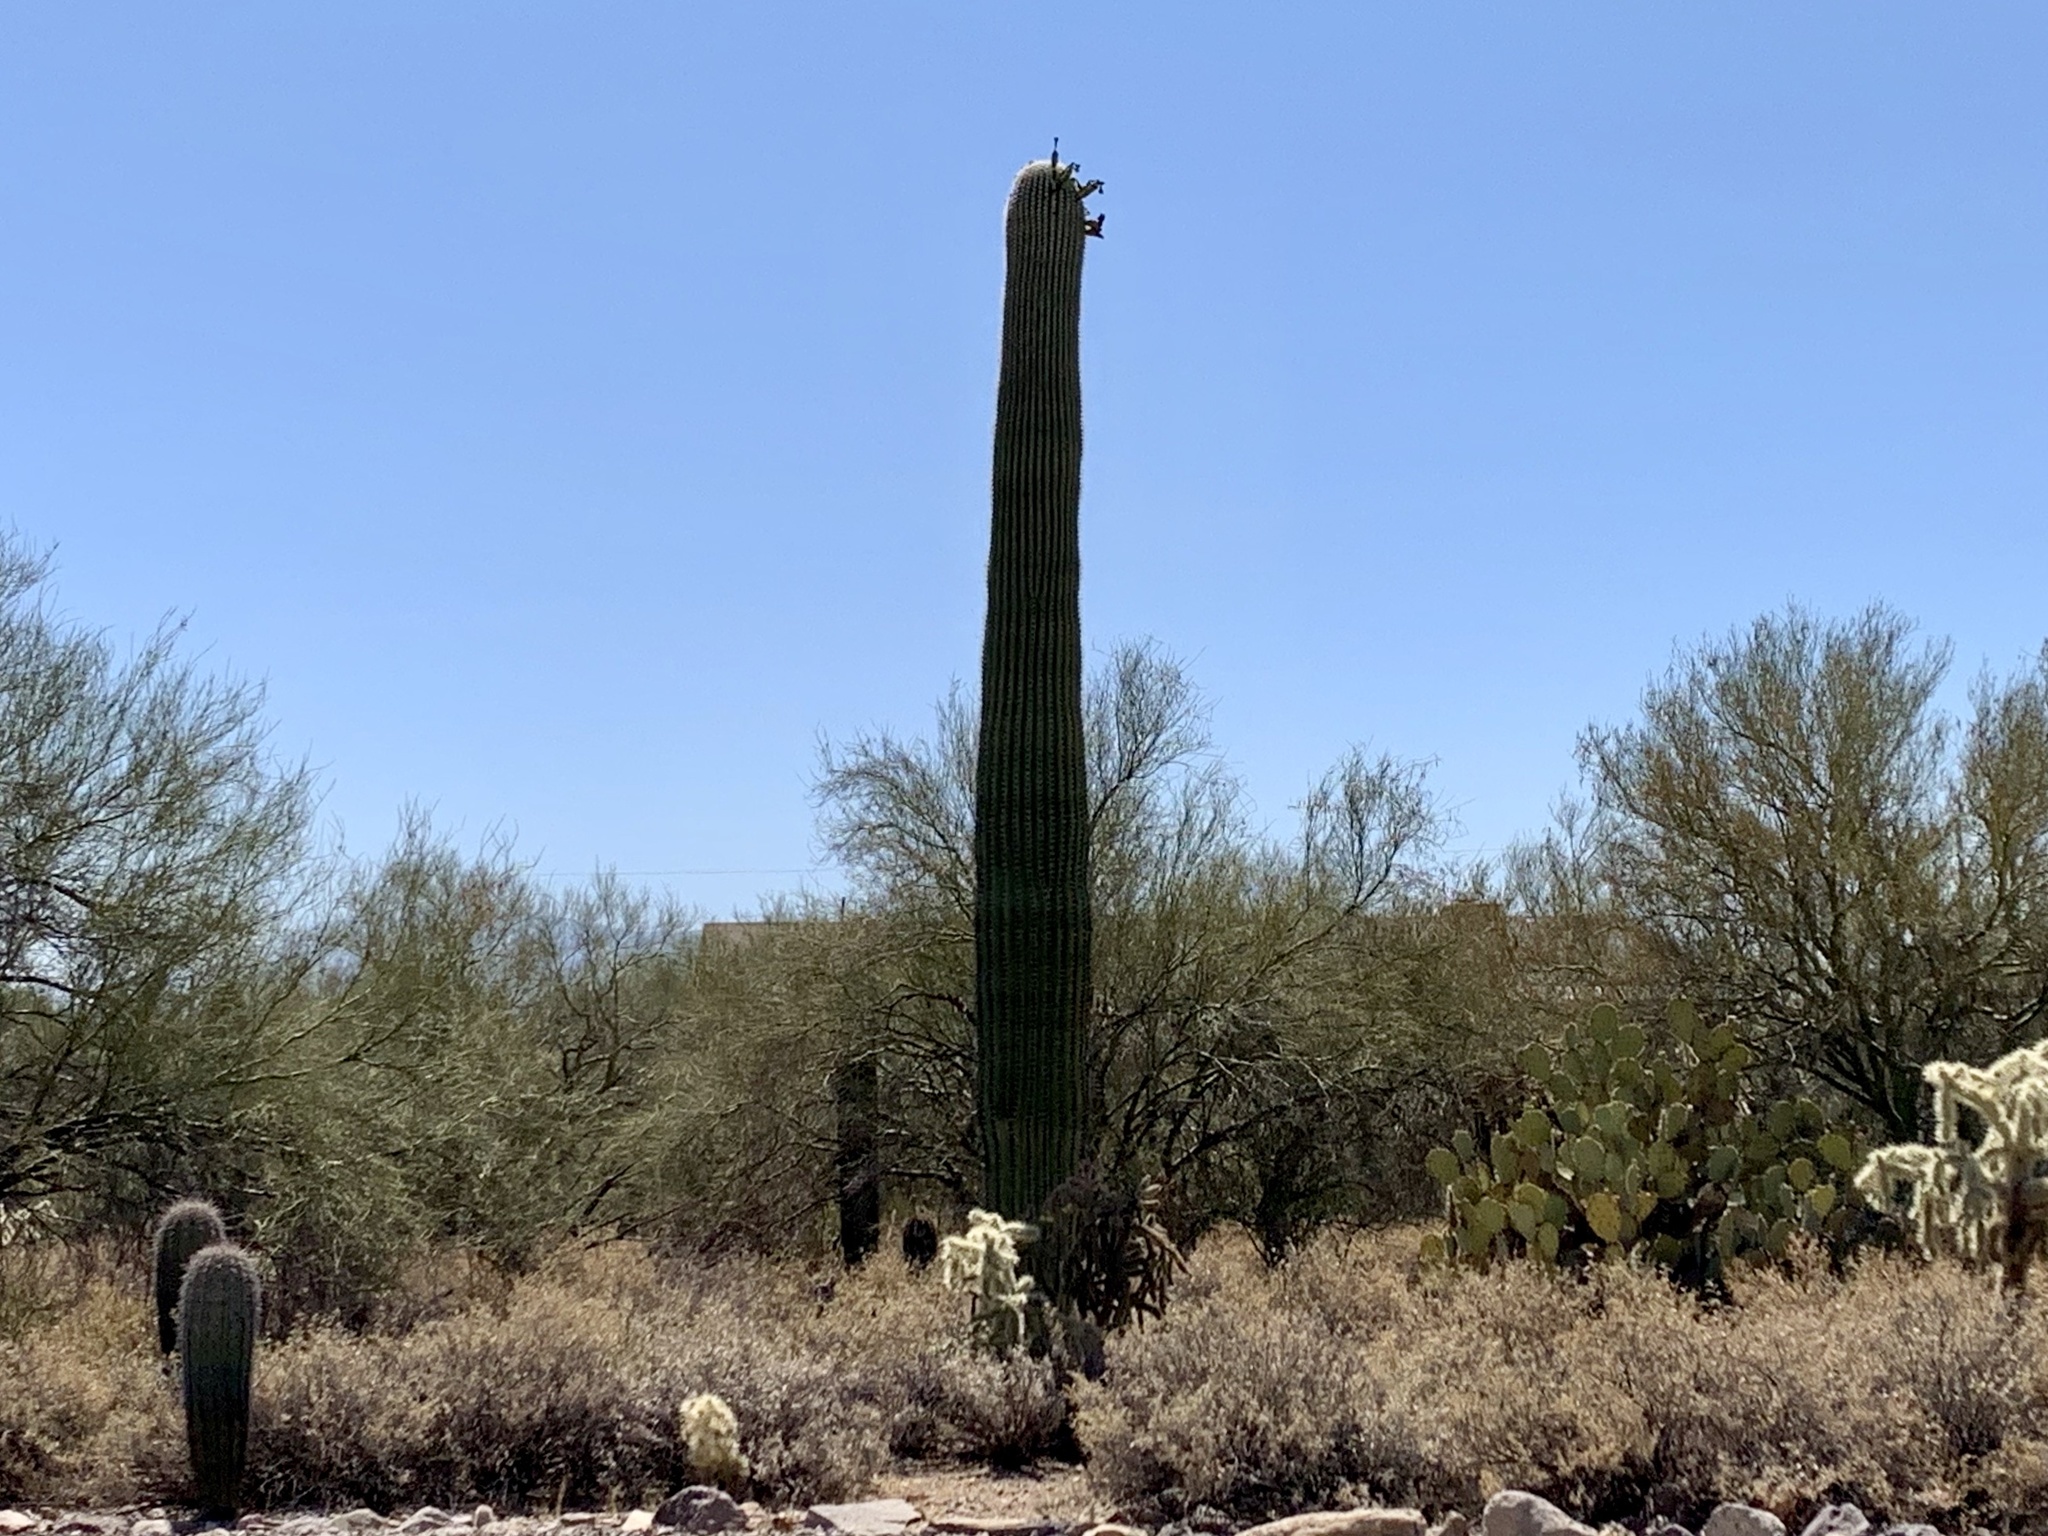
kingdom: Plantae
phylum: Tracheophyta
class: Magnoliopsida
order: Caryophyllales
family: Cactaceae
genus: Carnegiea
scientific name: Carnegiea gigantea
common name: Saguaro
